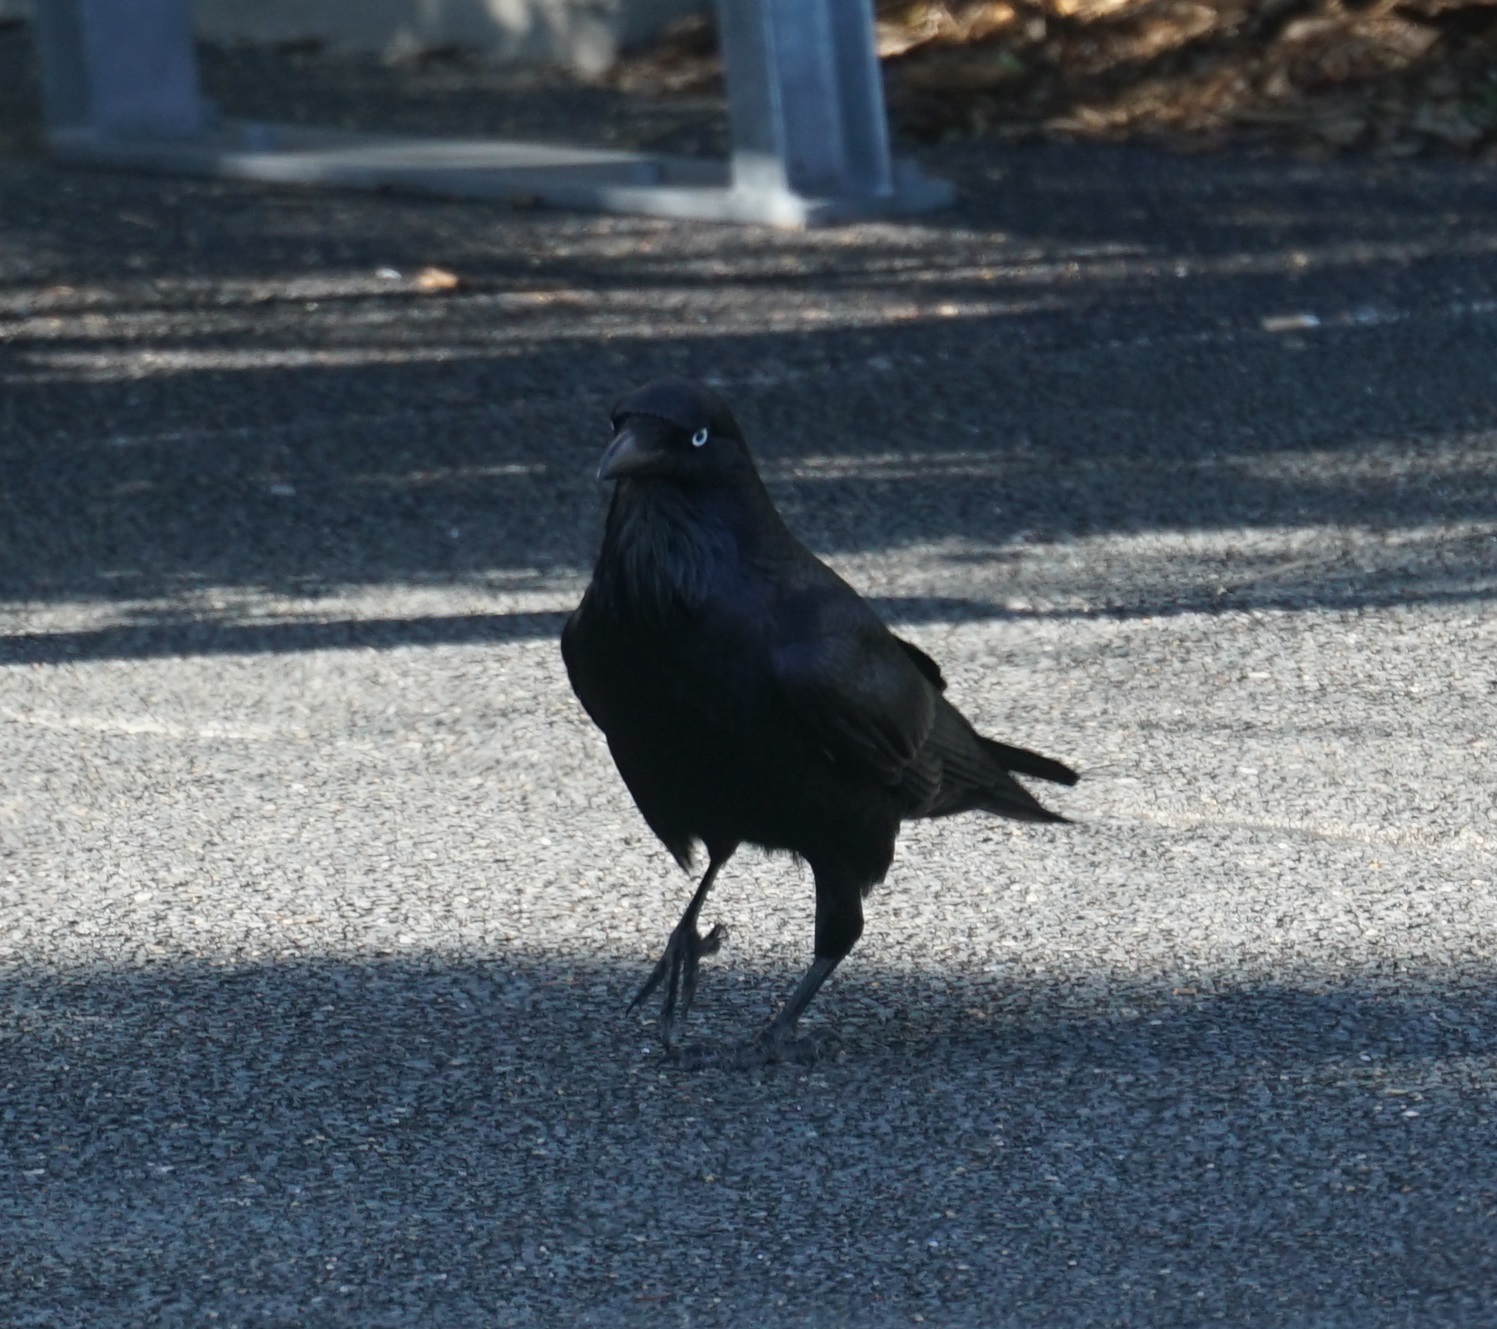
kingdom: Animalia
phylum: Chordata
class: Aves
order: Passeriformes
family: Corvidae
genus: Corvus
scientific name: Corvus coronoides
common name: Australian raven
